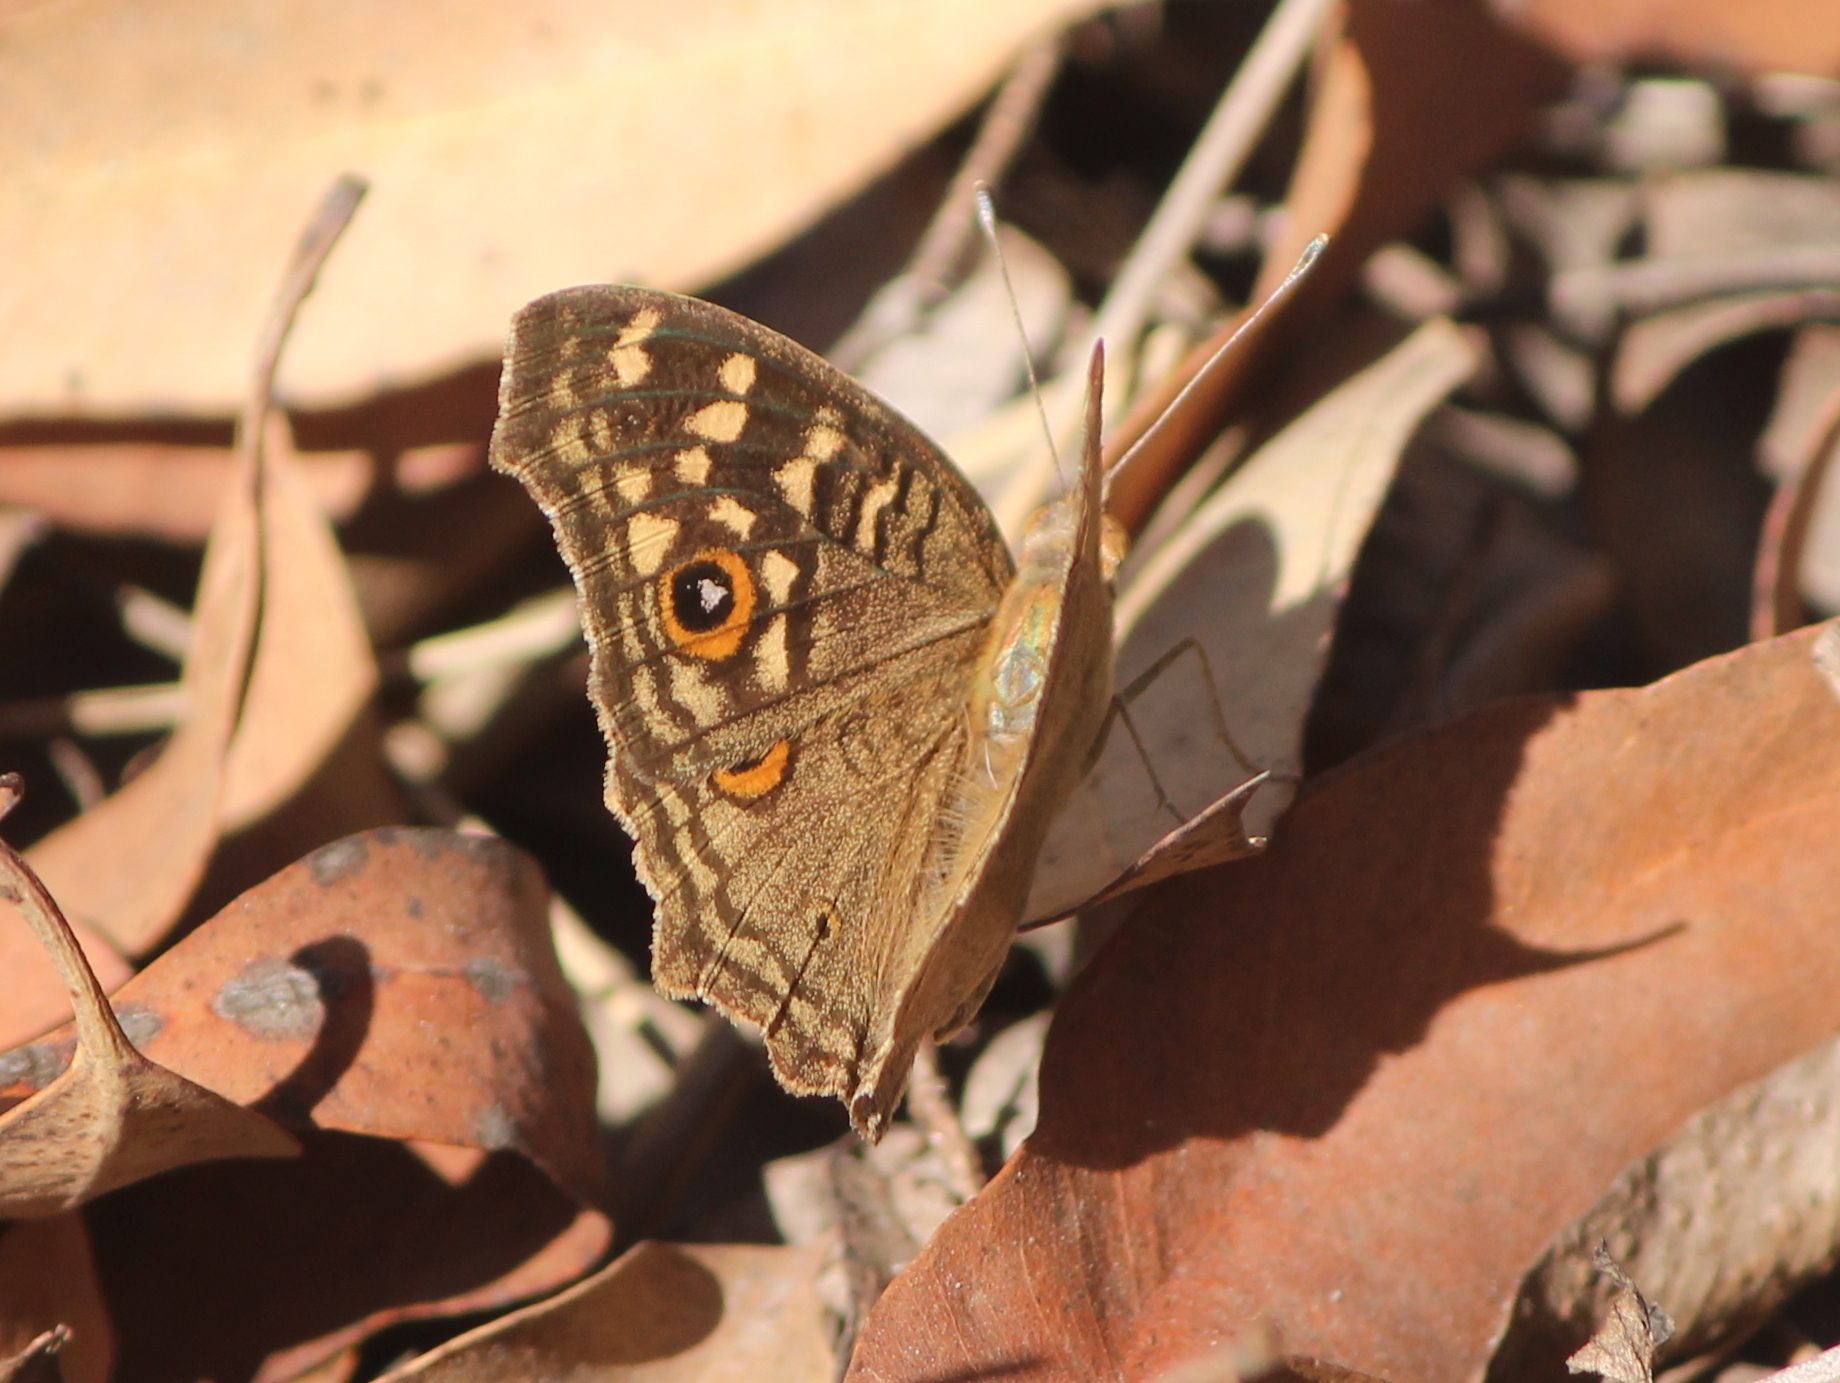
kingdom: Animalia
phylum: Arthropoda
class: Insecta
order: Lepidoptera
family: Nymphalidae
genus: Junonia
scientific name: Junonia lemonias
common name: Lemon pansy
